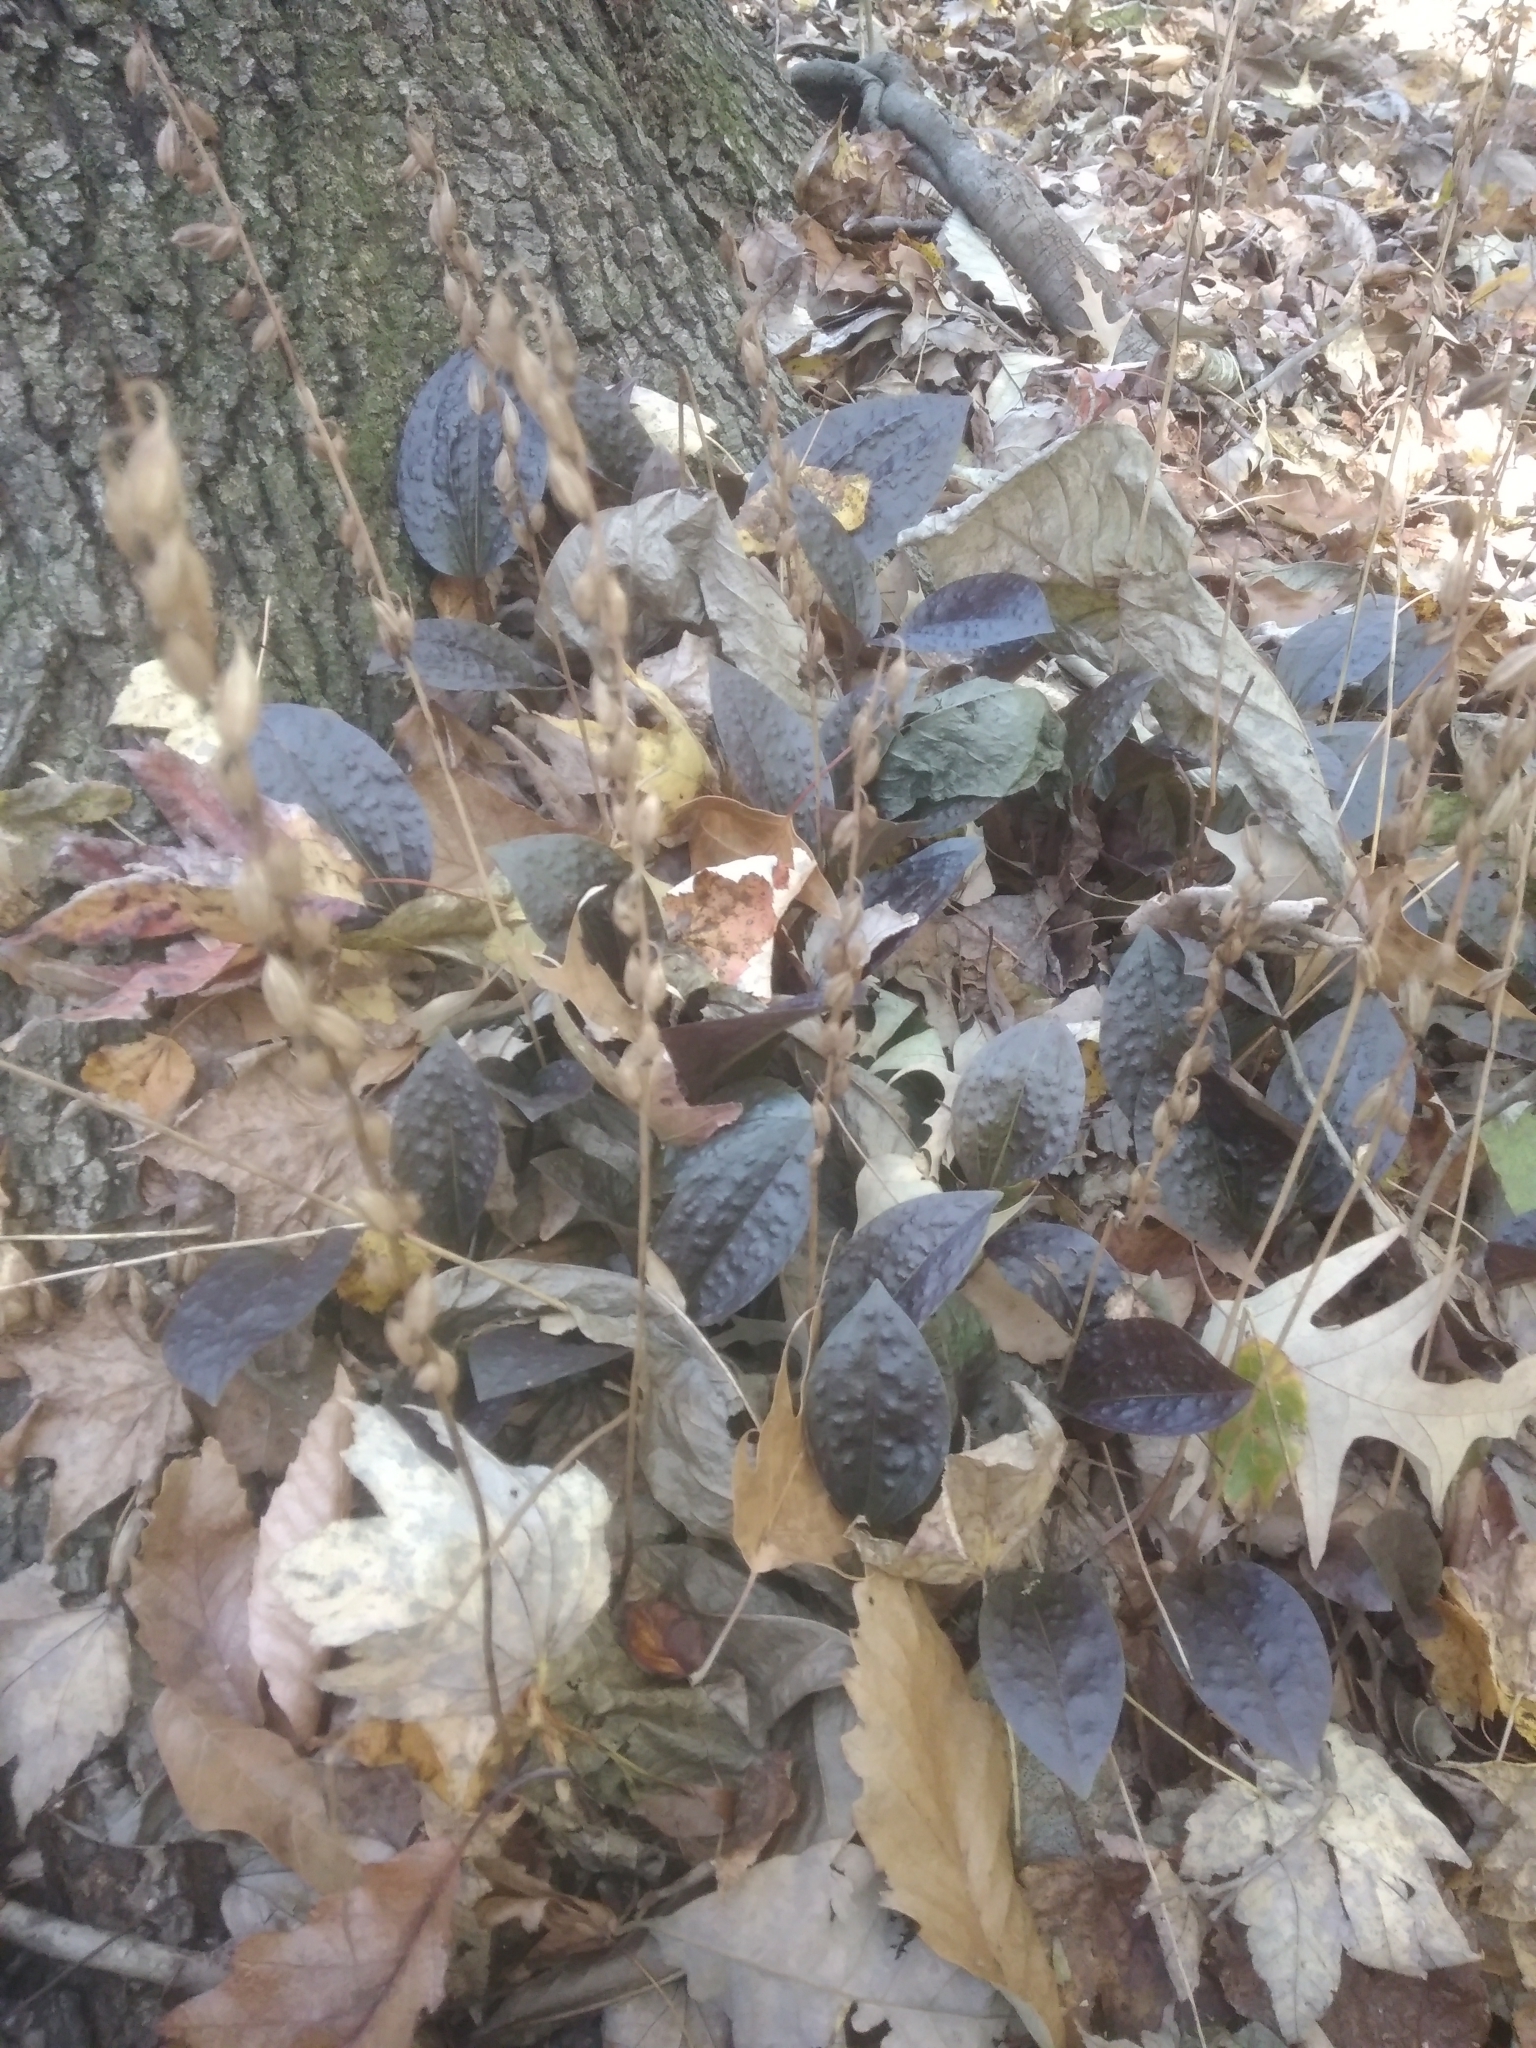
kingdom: Plantae
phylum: Tracheophyta
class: Liliopsida
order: Asparagales
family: Orchidaceae
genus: Tipularia
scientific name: Tipularia discolor
